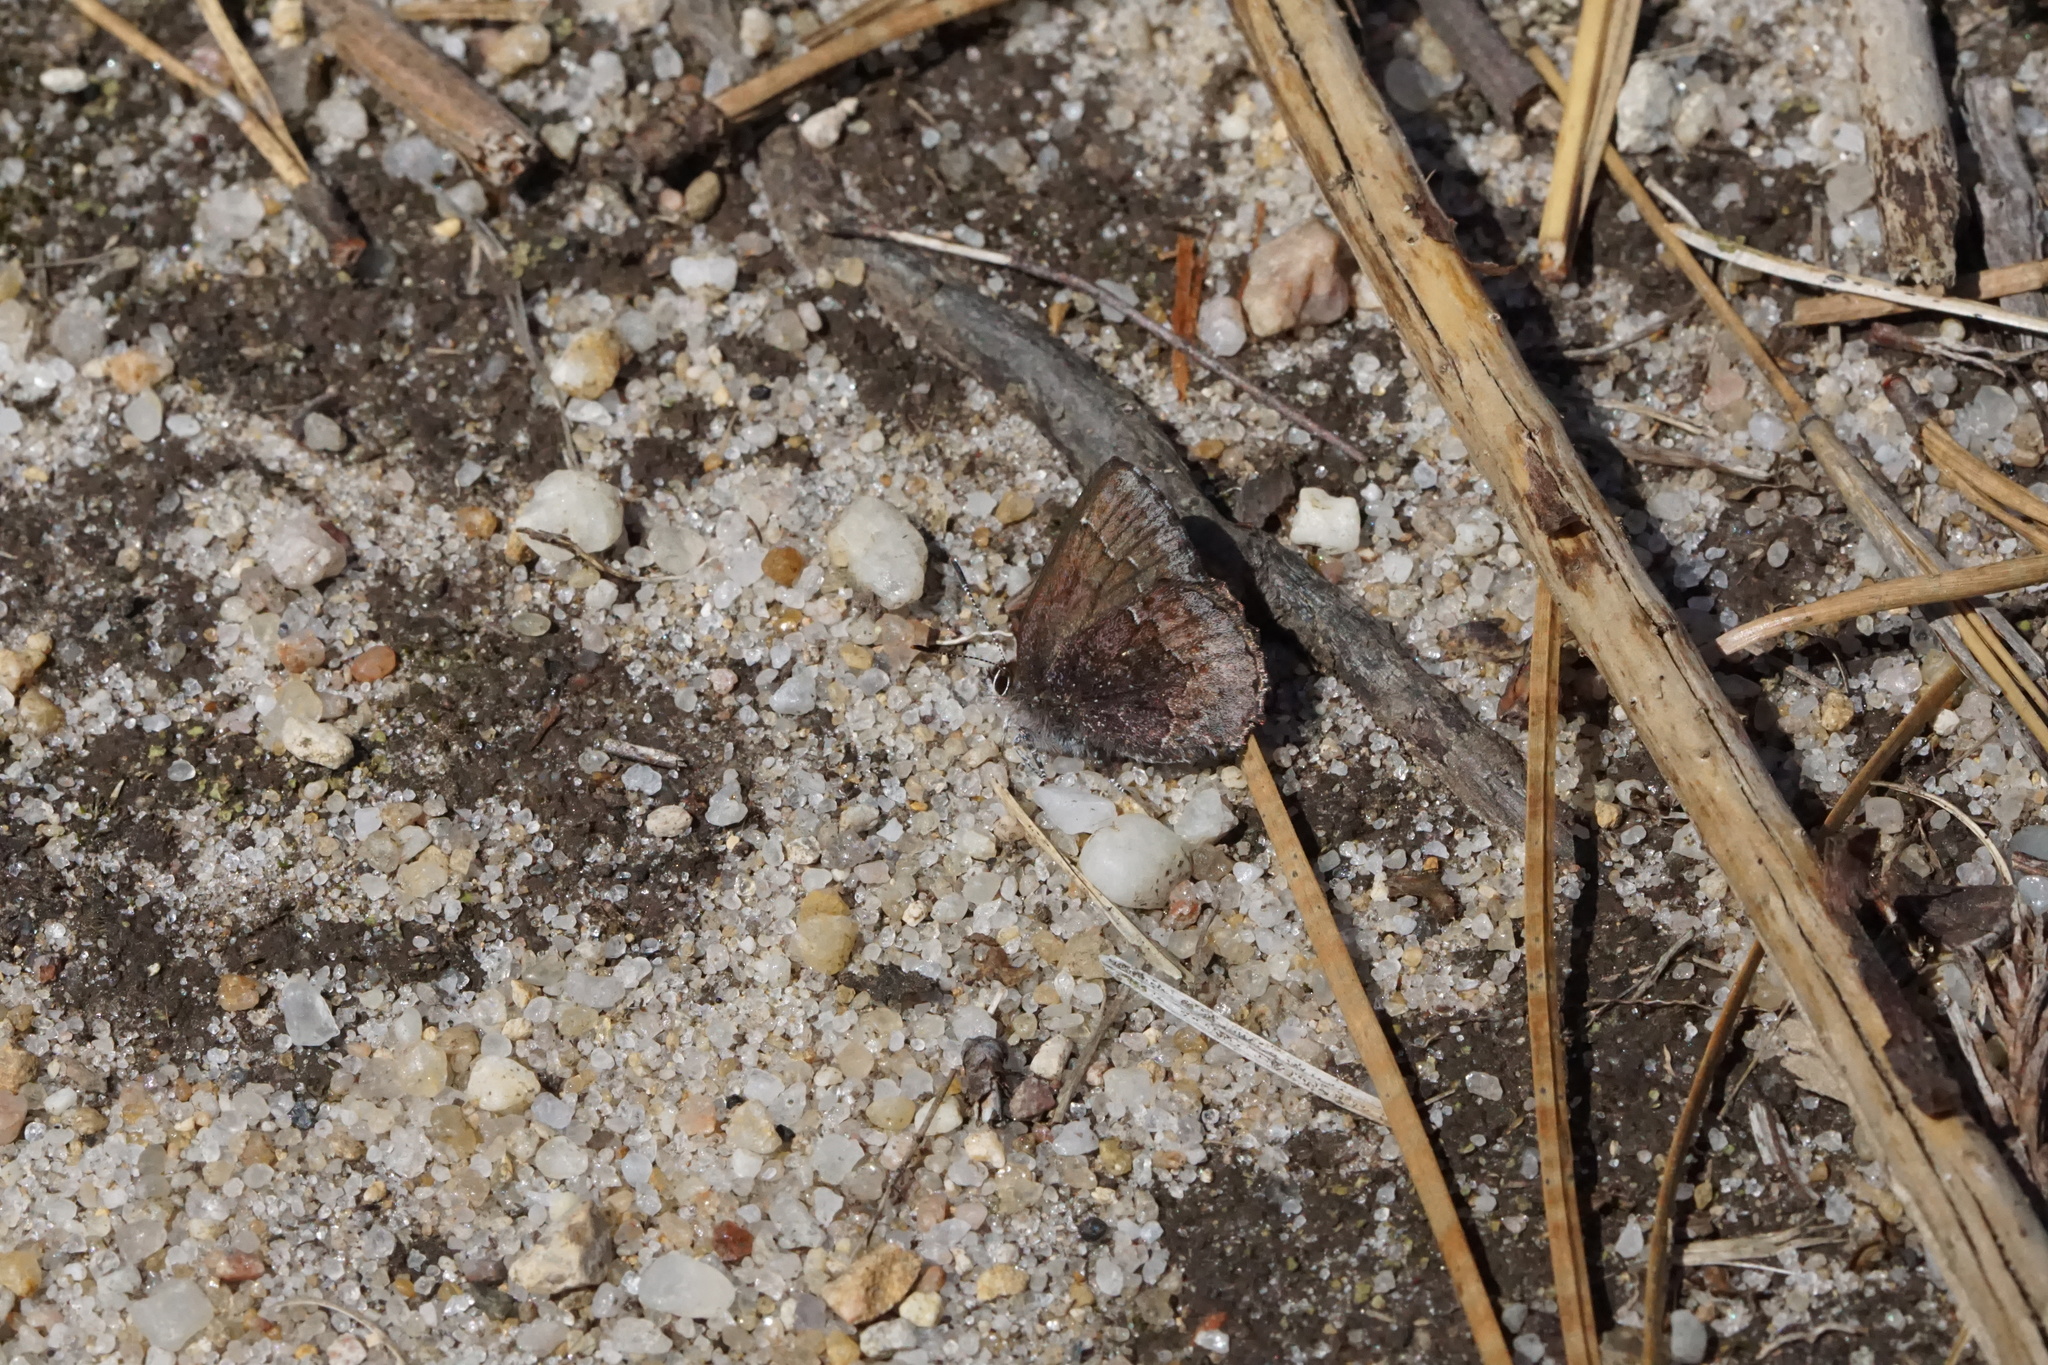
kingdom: Animalia
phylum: Arthropoda
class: Insecta
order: Lepidoptera
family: Lycaenidae
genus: Callophrys
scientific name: Callophrys polios
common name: Hoary elfin
